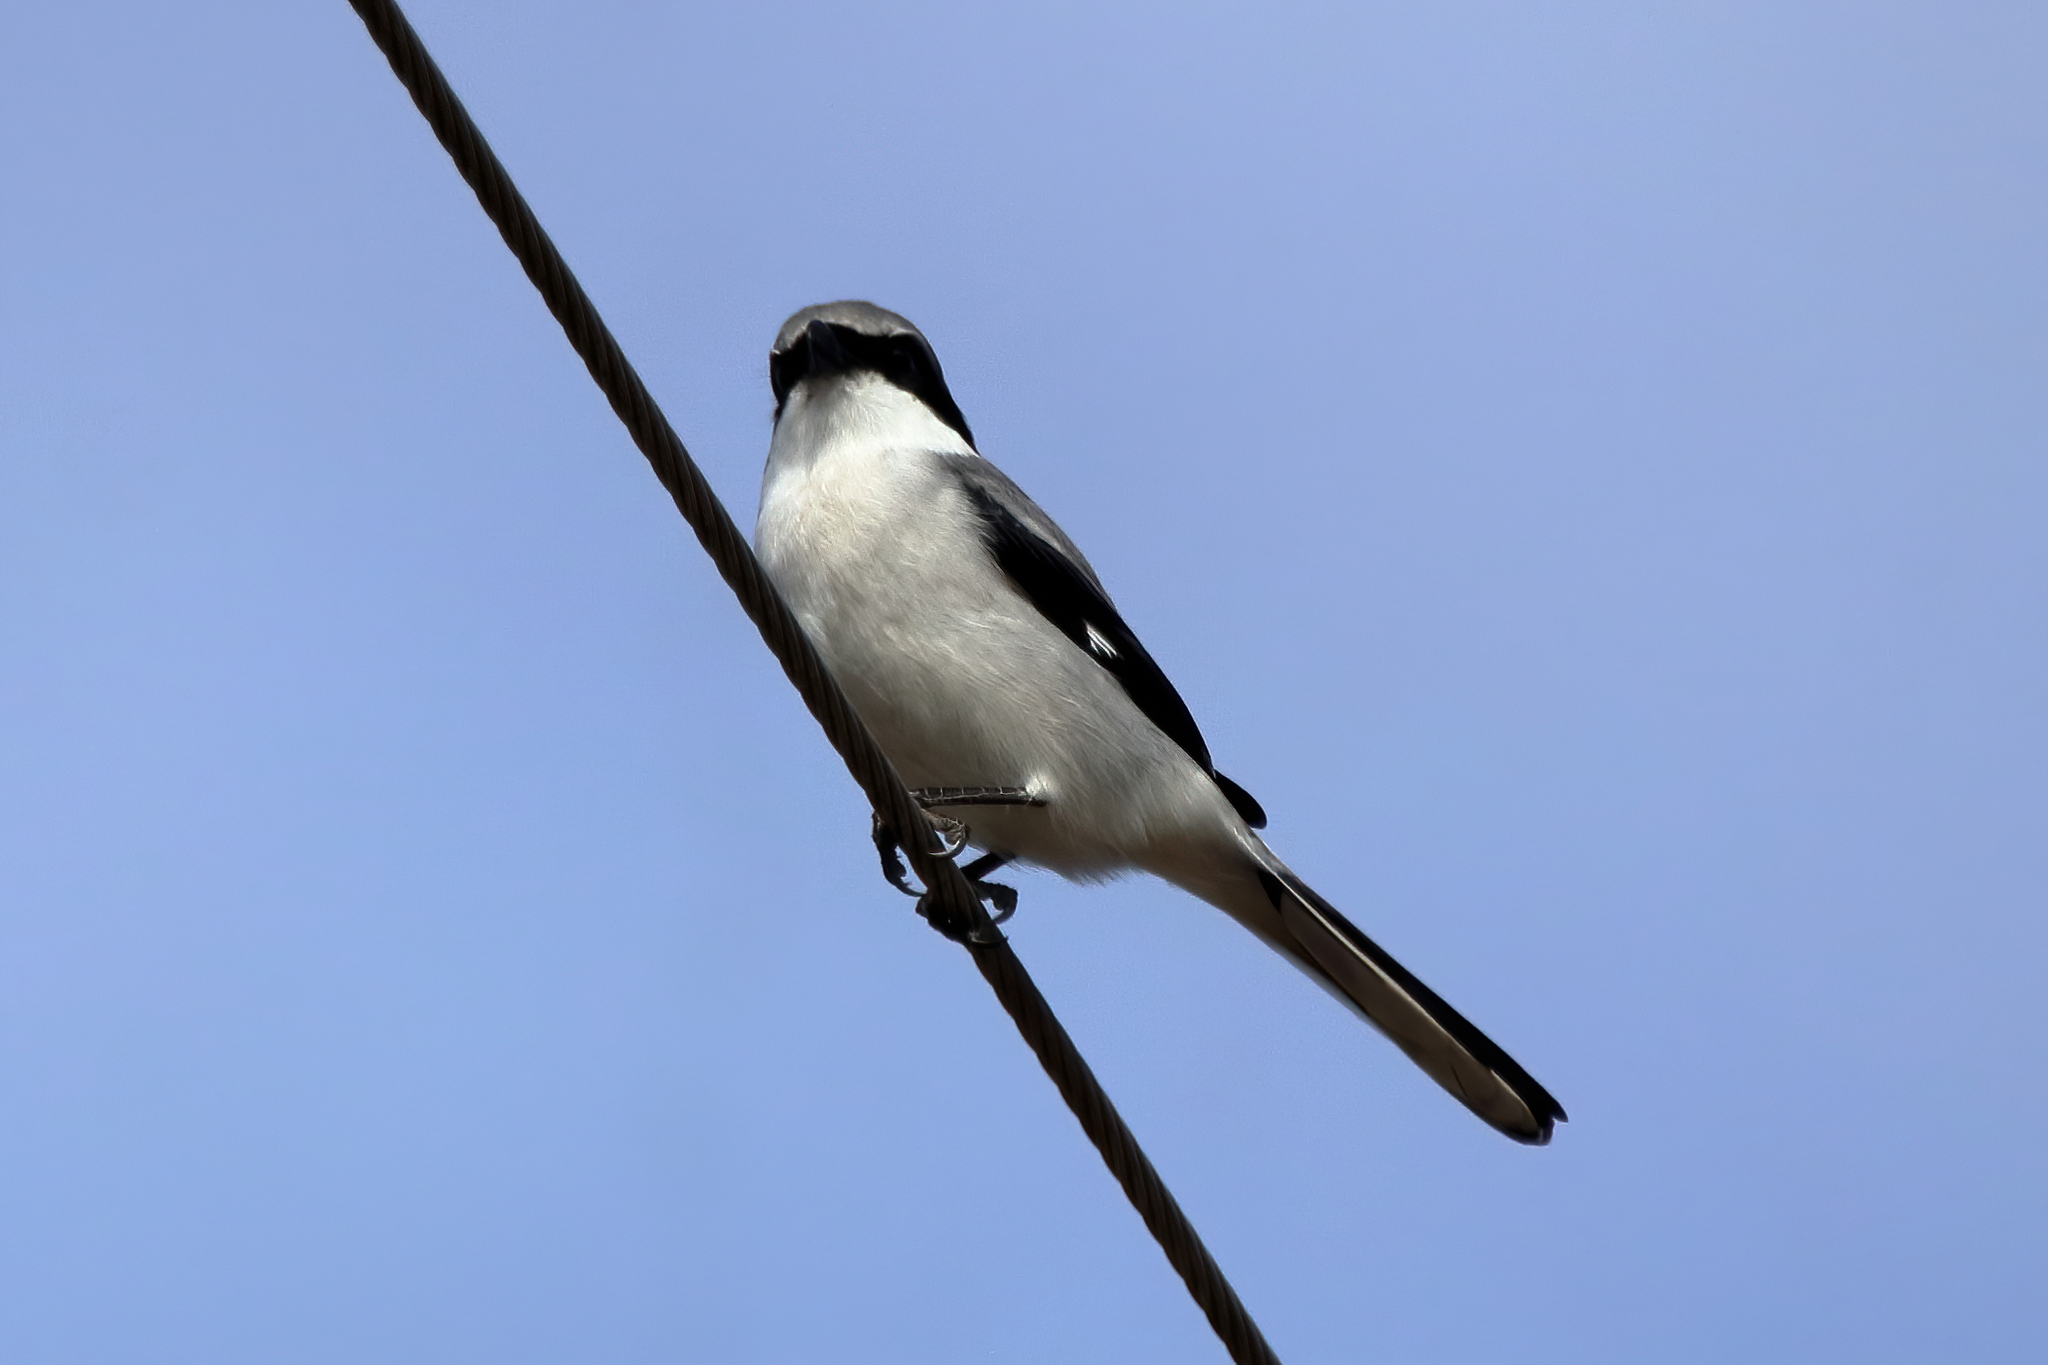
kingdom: Animalia
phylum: Chordata
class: Aves
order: Passeriformes
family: Laniidae
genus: Lanius
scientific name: Lanius ludovicianus
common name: Loggerhead shrike
